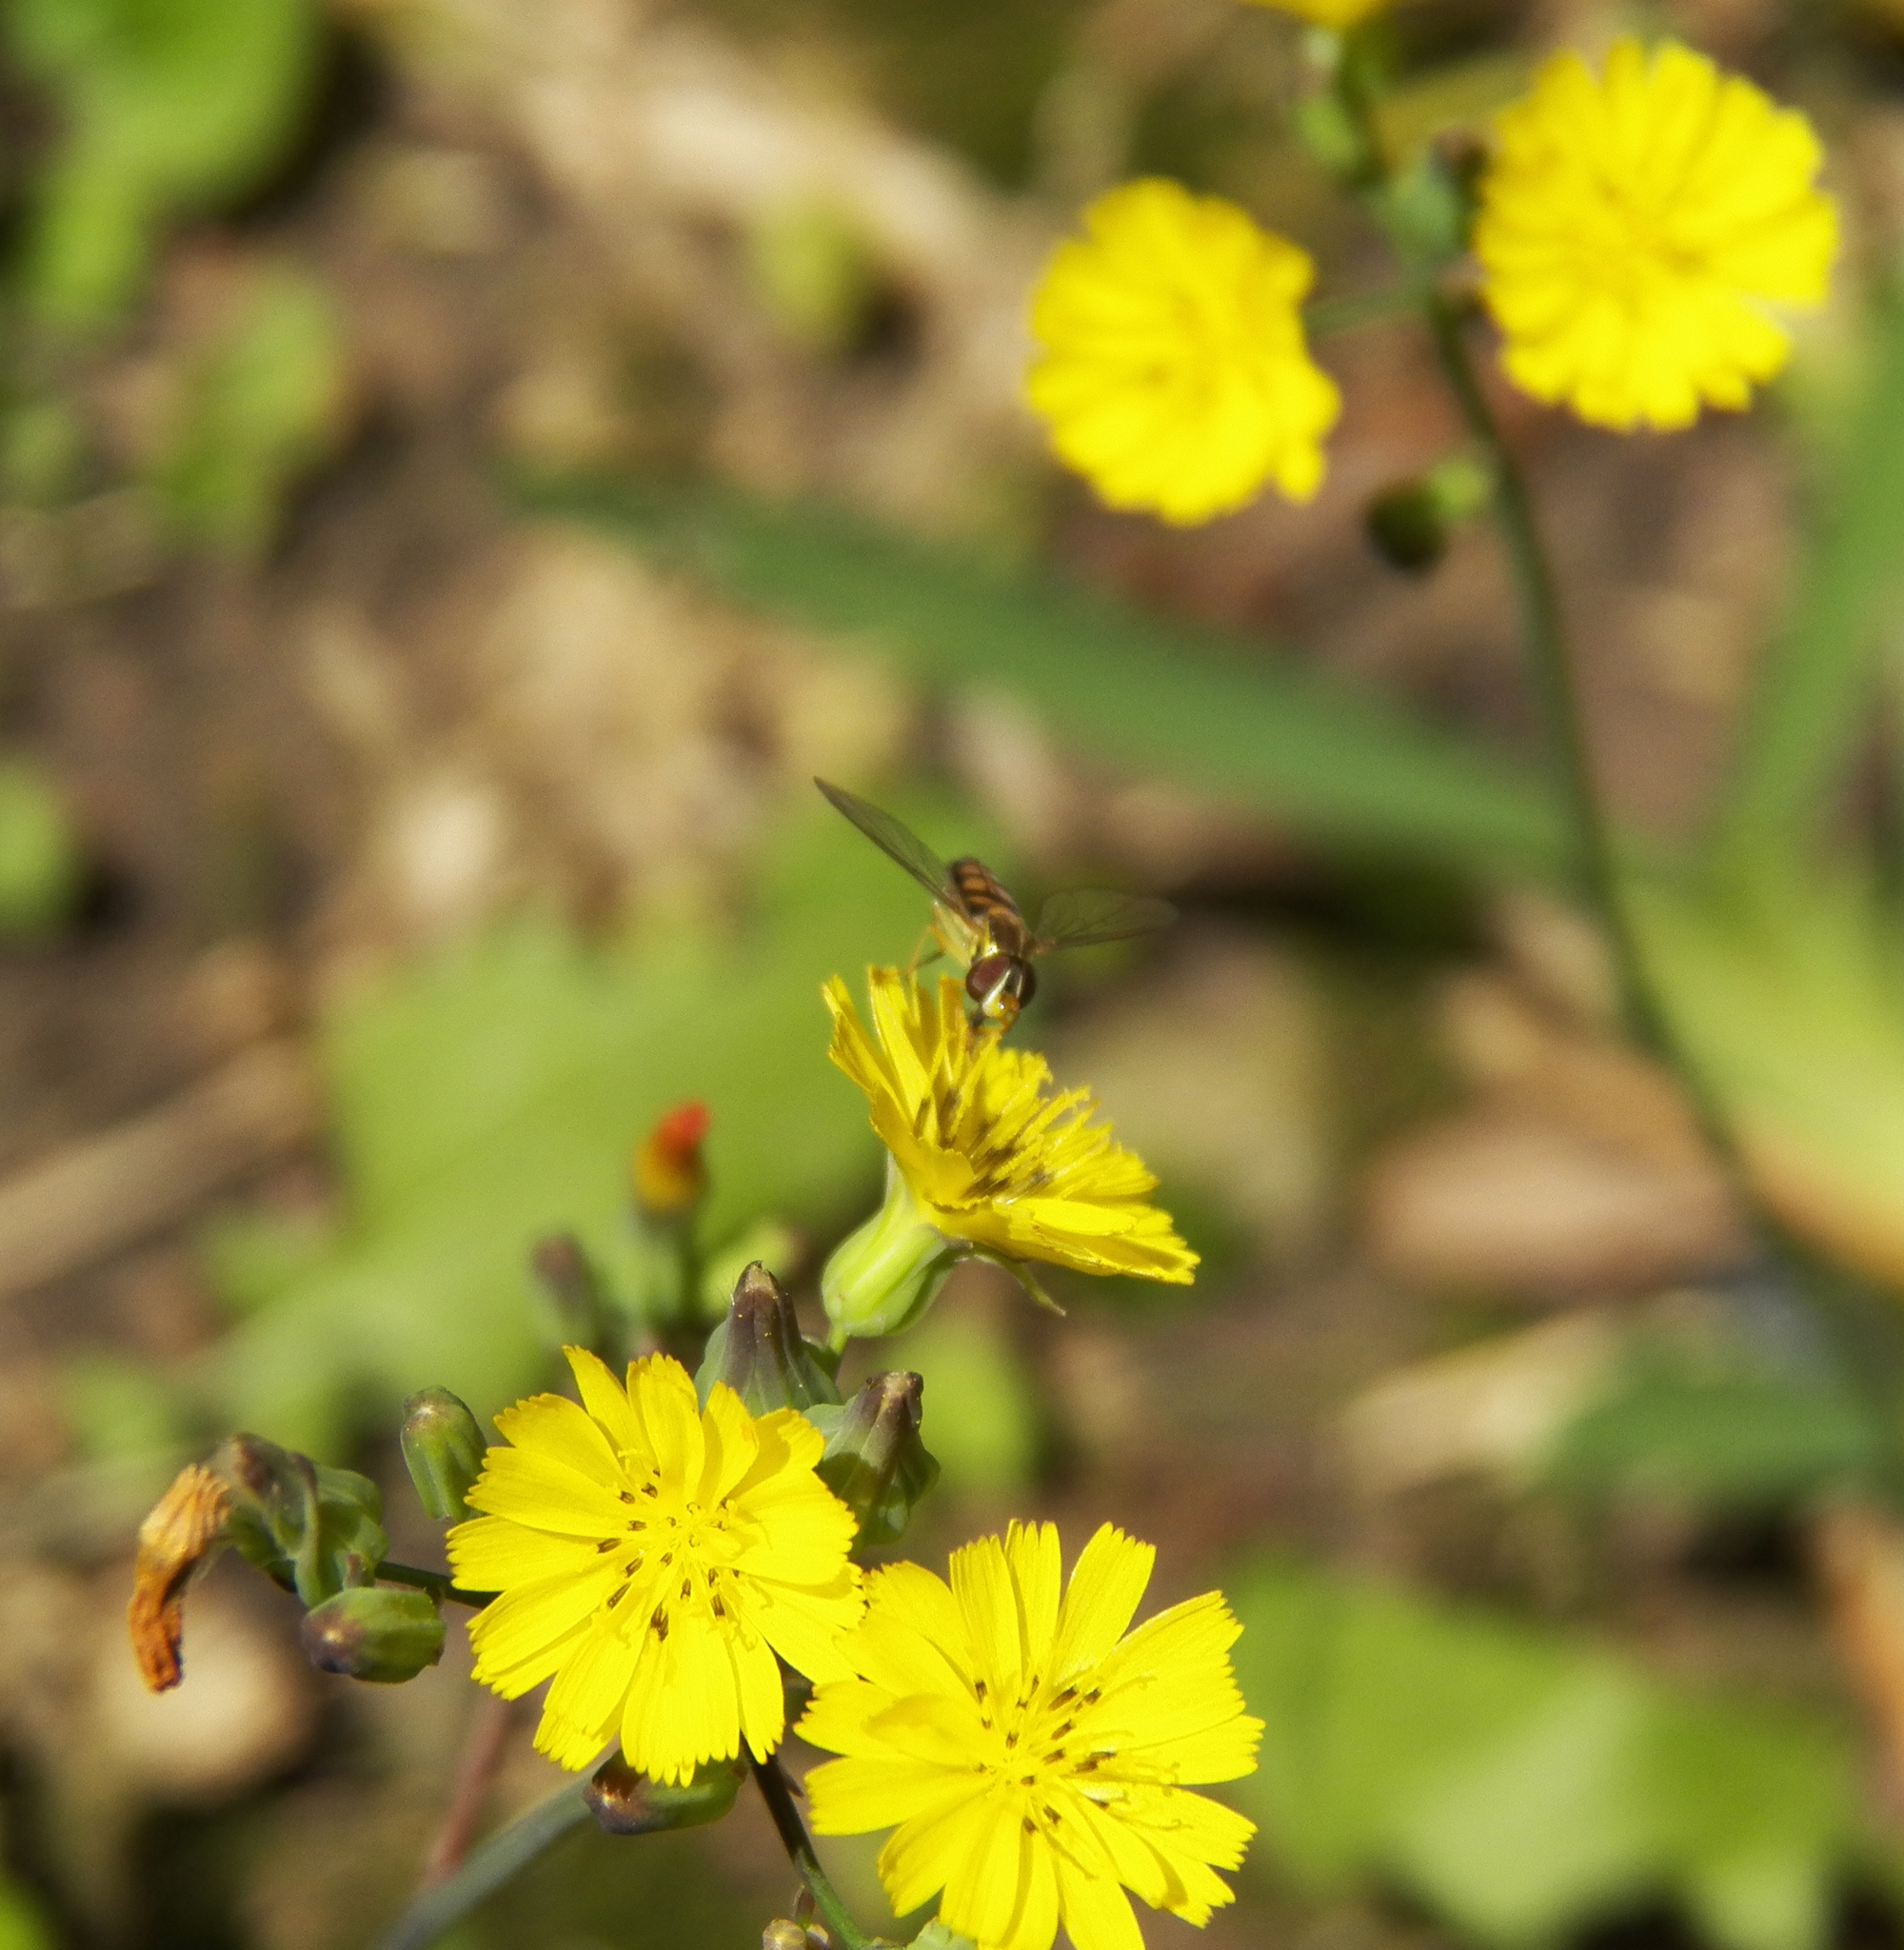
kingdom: Plantae
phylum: Tracheophyta
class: Magnoliopsida
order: Asterales
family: Asteraceae
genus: Youngia
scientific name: Youngia japonica
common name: Oriental false hawksbeard
